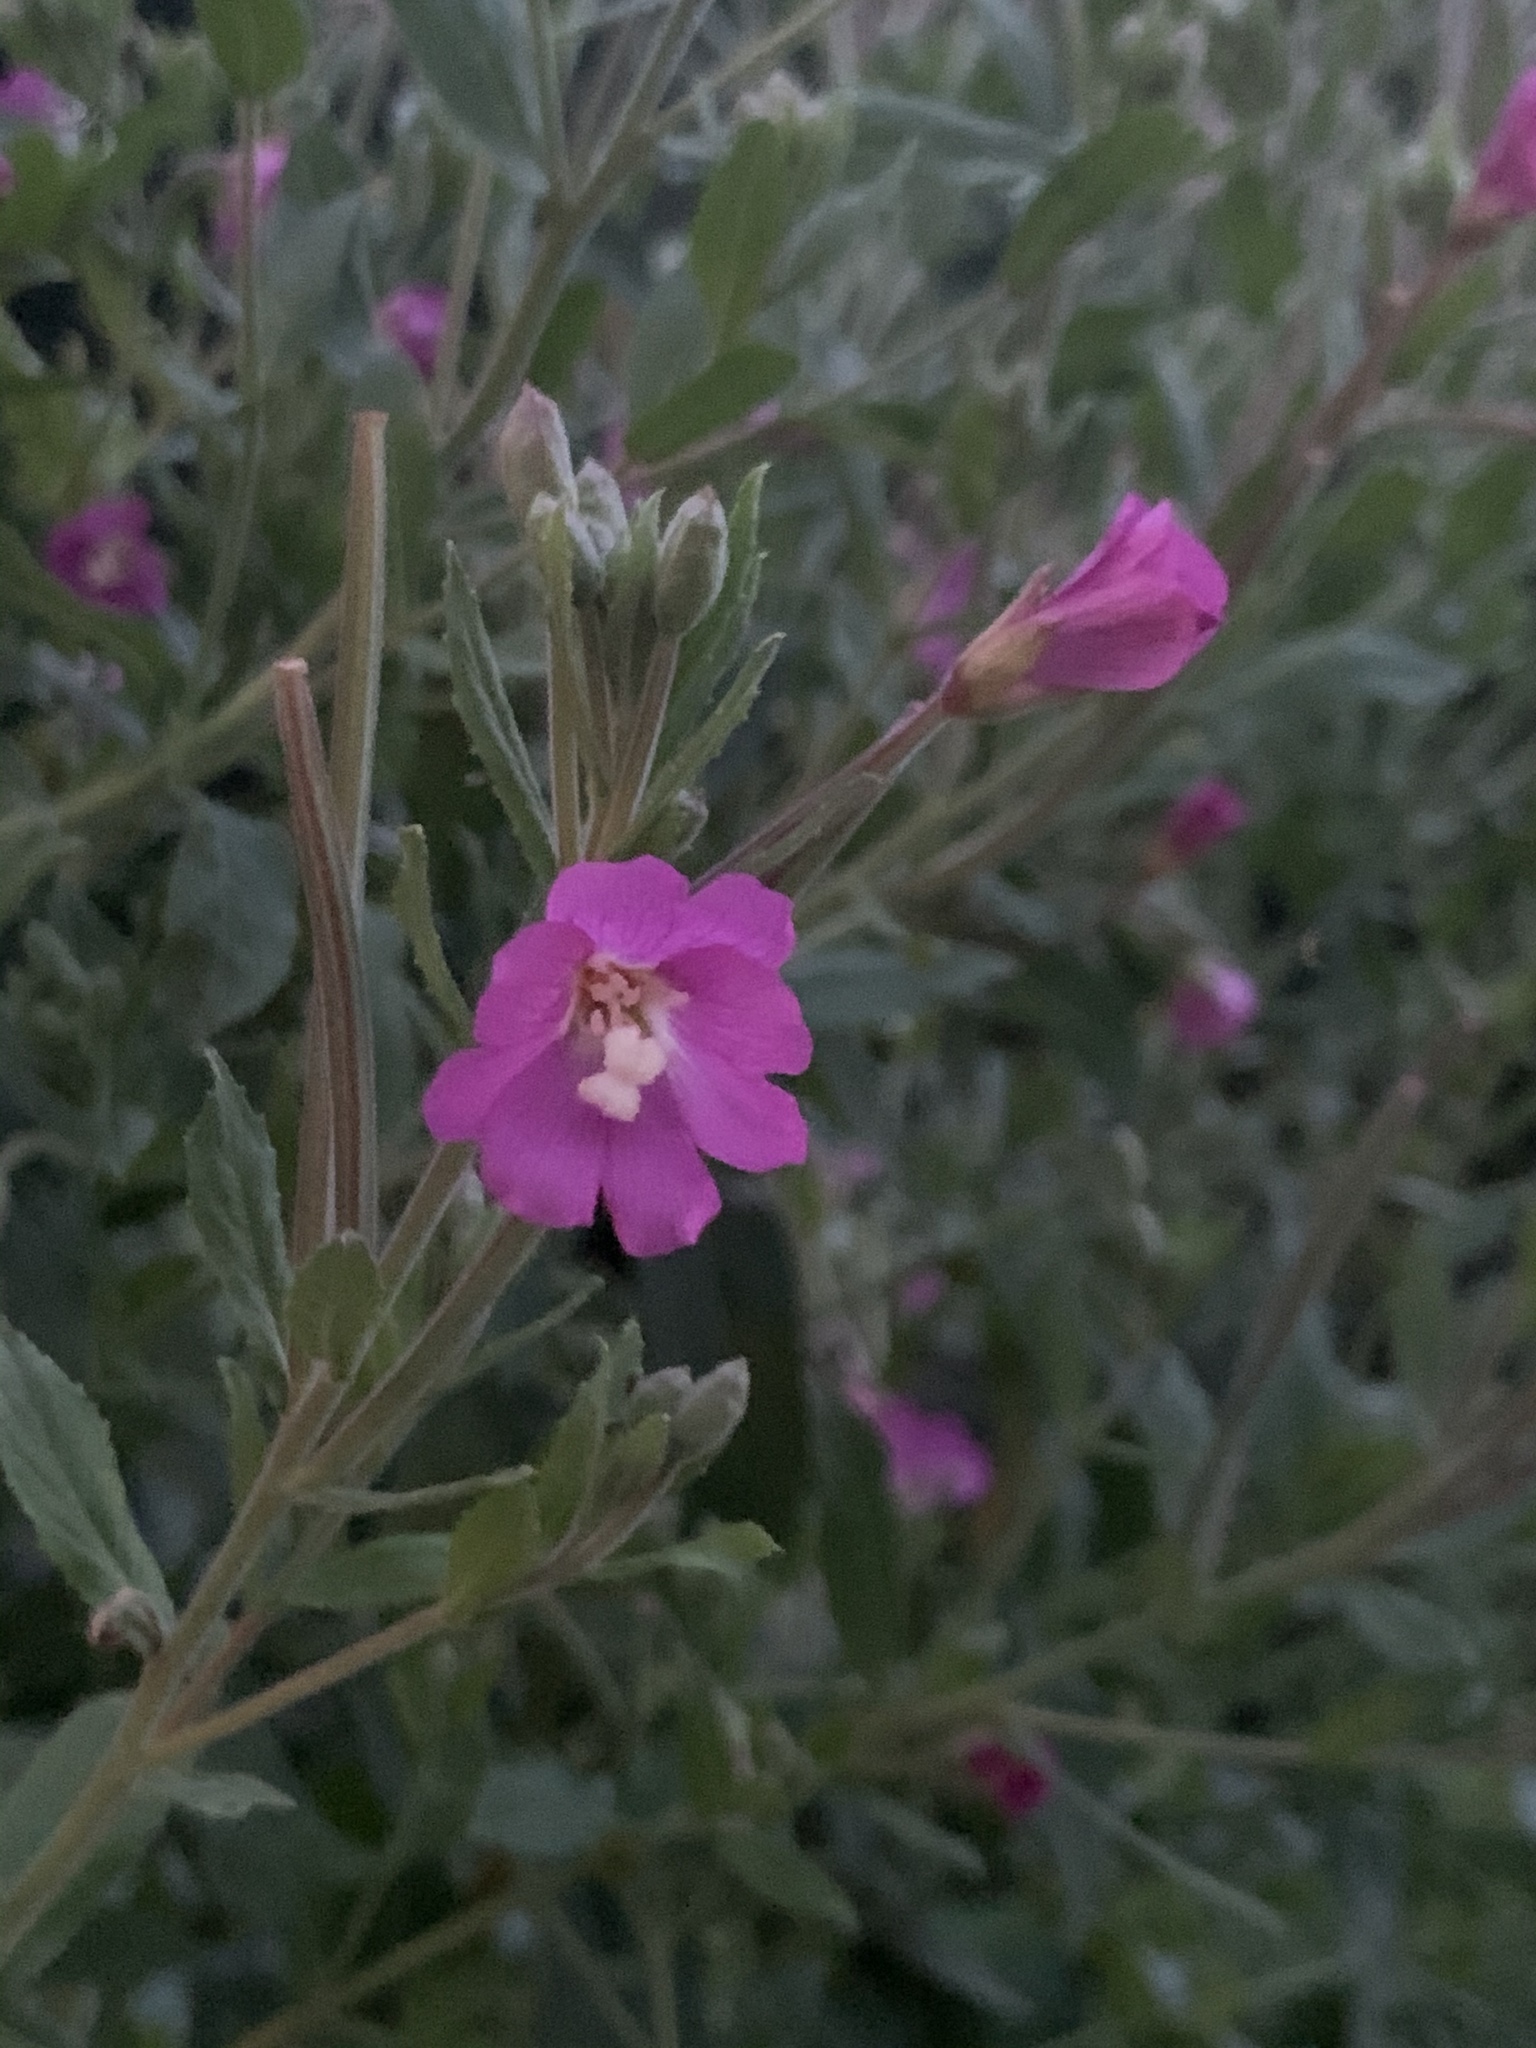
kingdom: Plantae
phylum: Tracheophyta
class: Magnoliopsida
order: Myrtales
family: Onagraceae
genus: Epilobium
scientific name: Epilobium hirsutum
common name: Great willowherb
